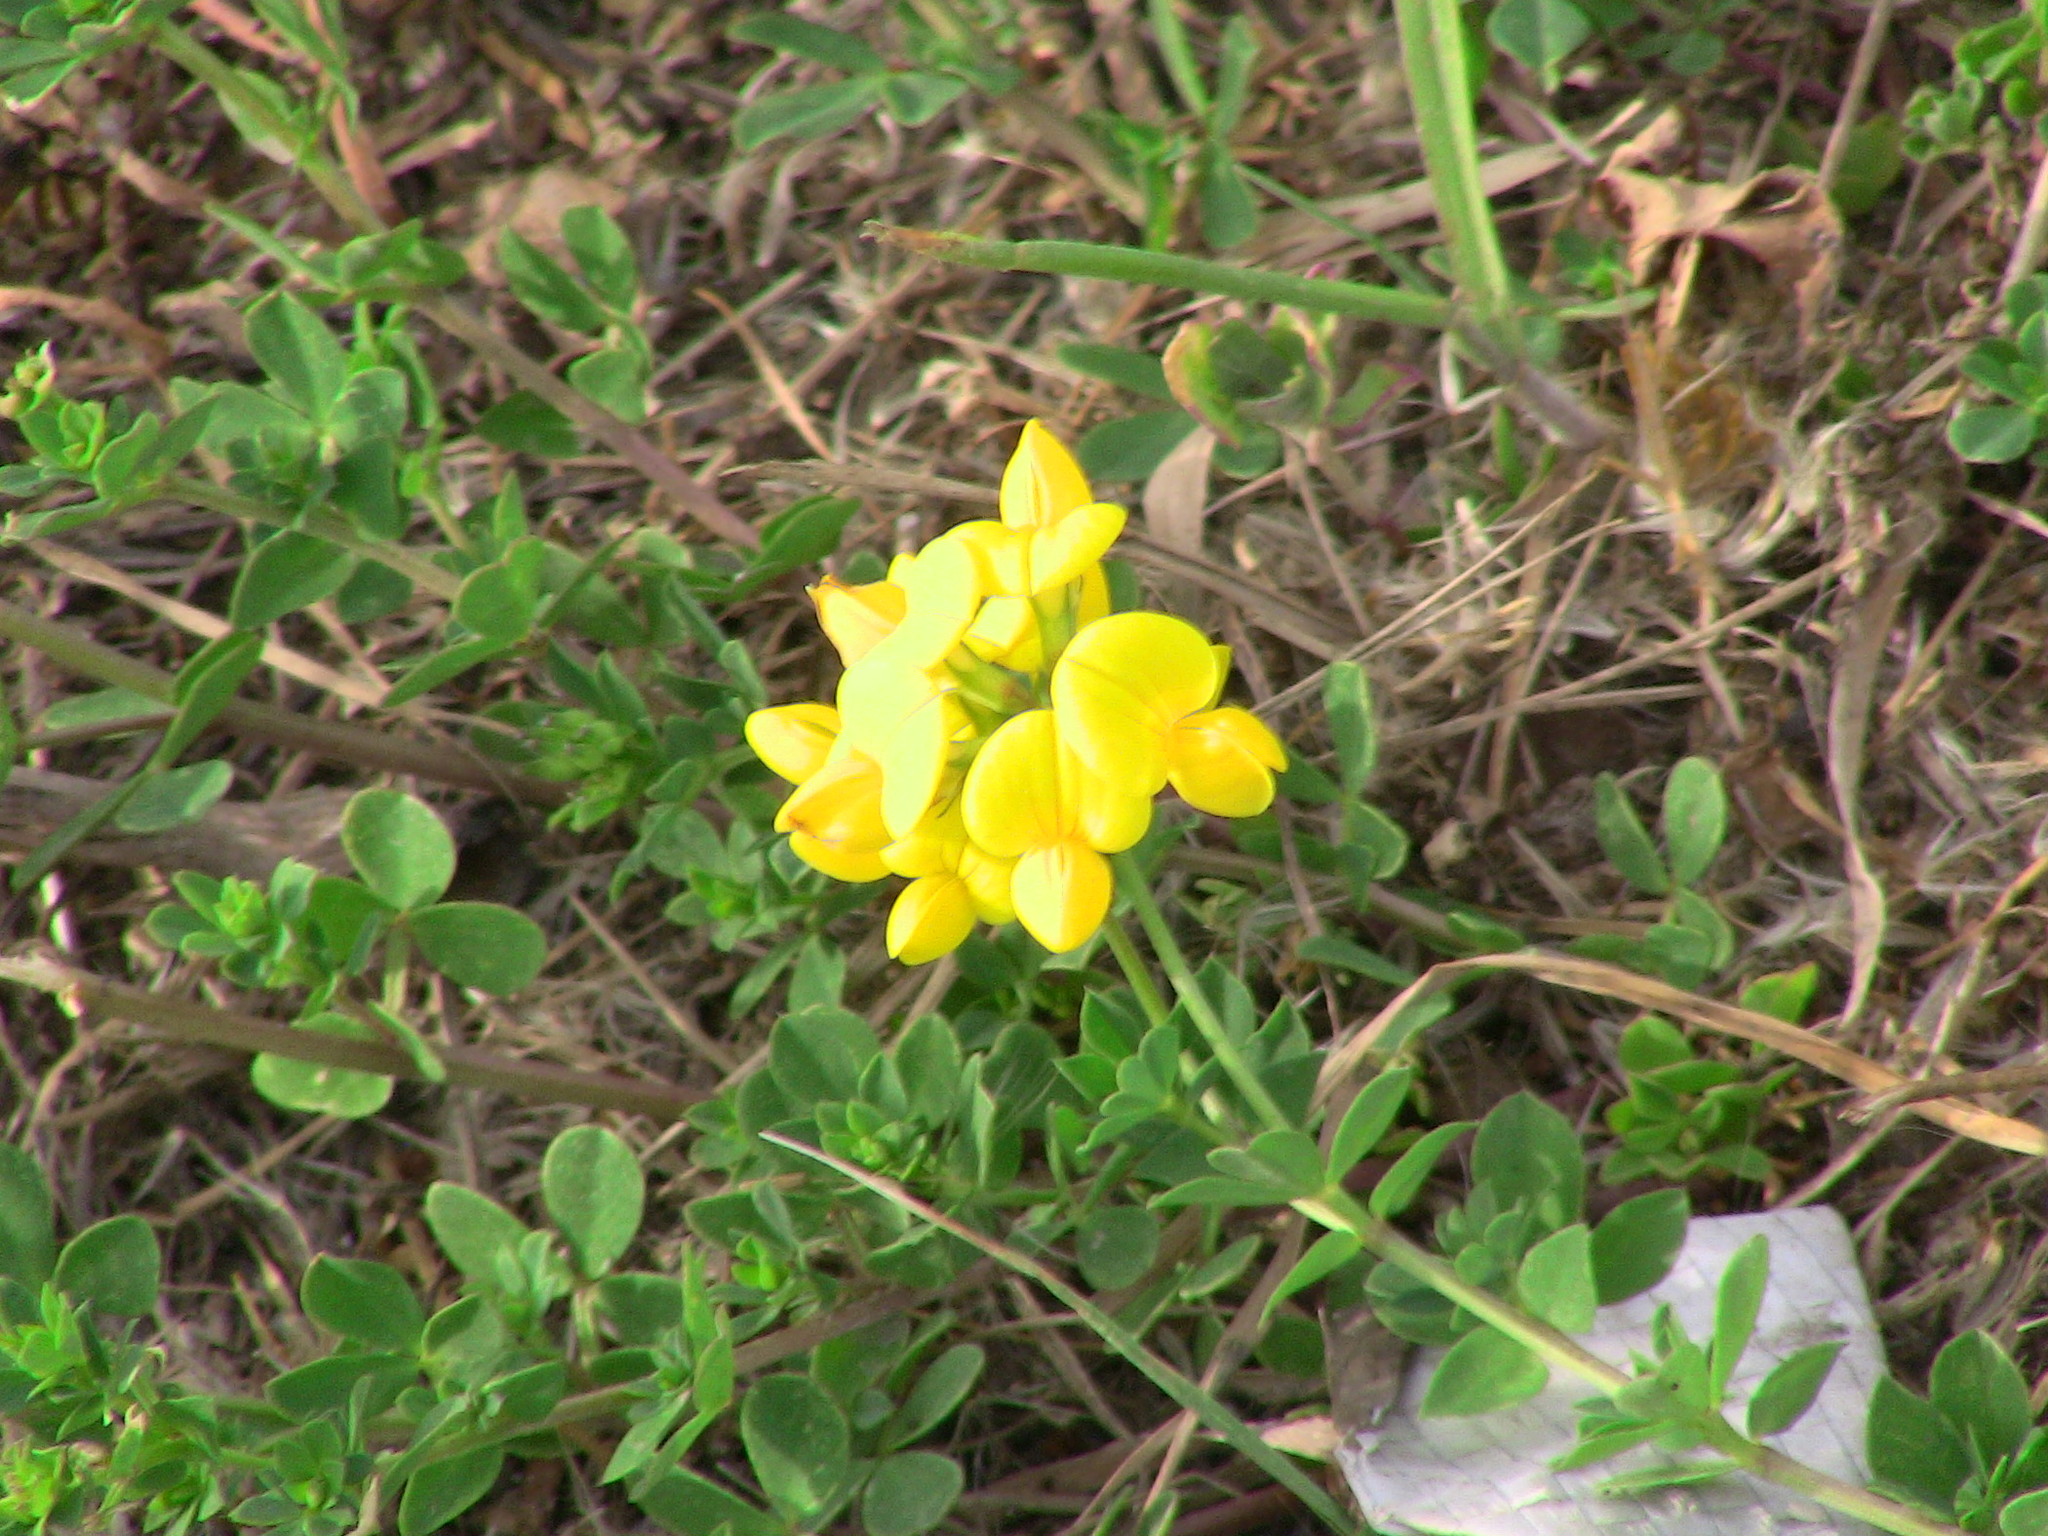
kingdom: Plantae
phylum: Tracheophyta
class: Magnoliopsida
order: Fabales
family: Fabaceae
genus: Lotus
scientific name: Lotus corniculatus
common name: Common bird's-foot-trefoil
